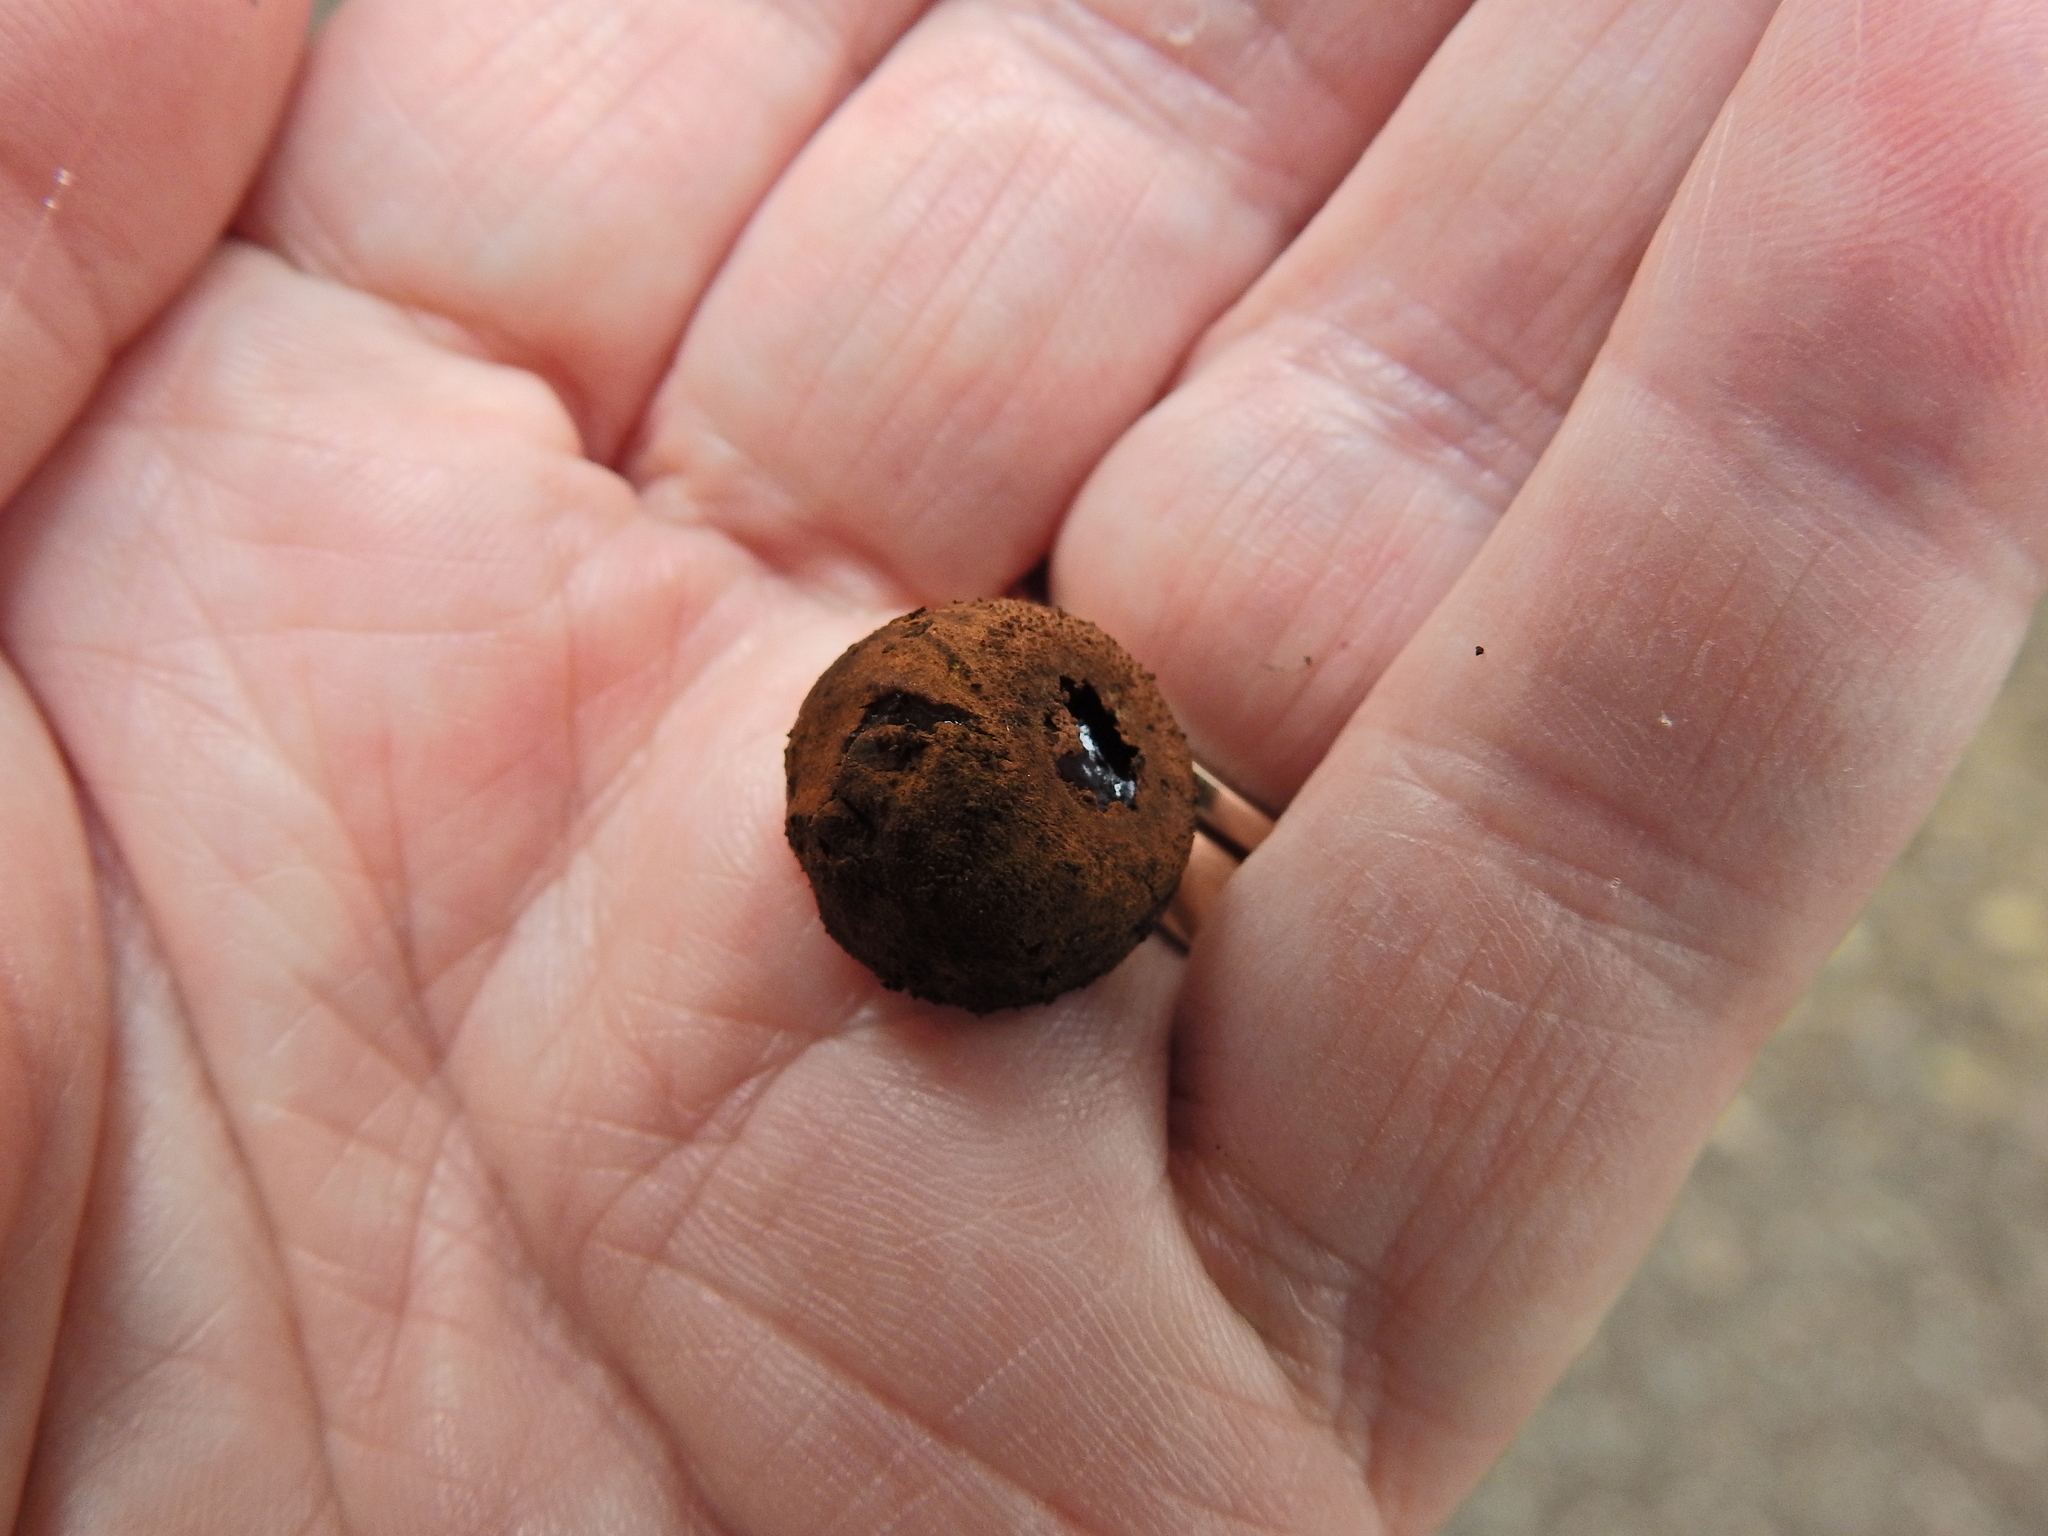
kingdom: Fungi
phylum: Ascomycota
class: Leotiomycetes
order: Phacidiales
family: Phacidiaceae
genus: Bulgaria
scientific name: Bulgaria inquinans
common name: Black bulgar
